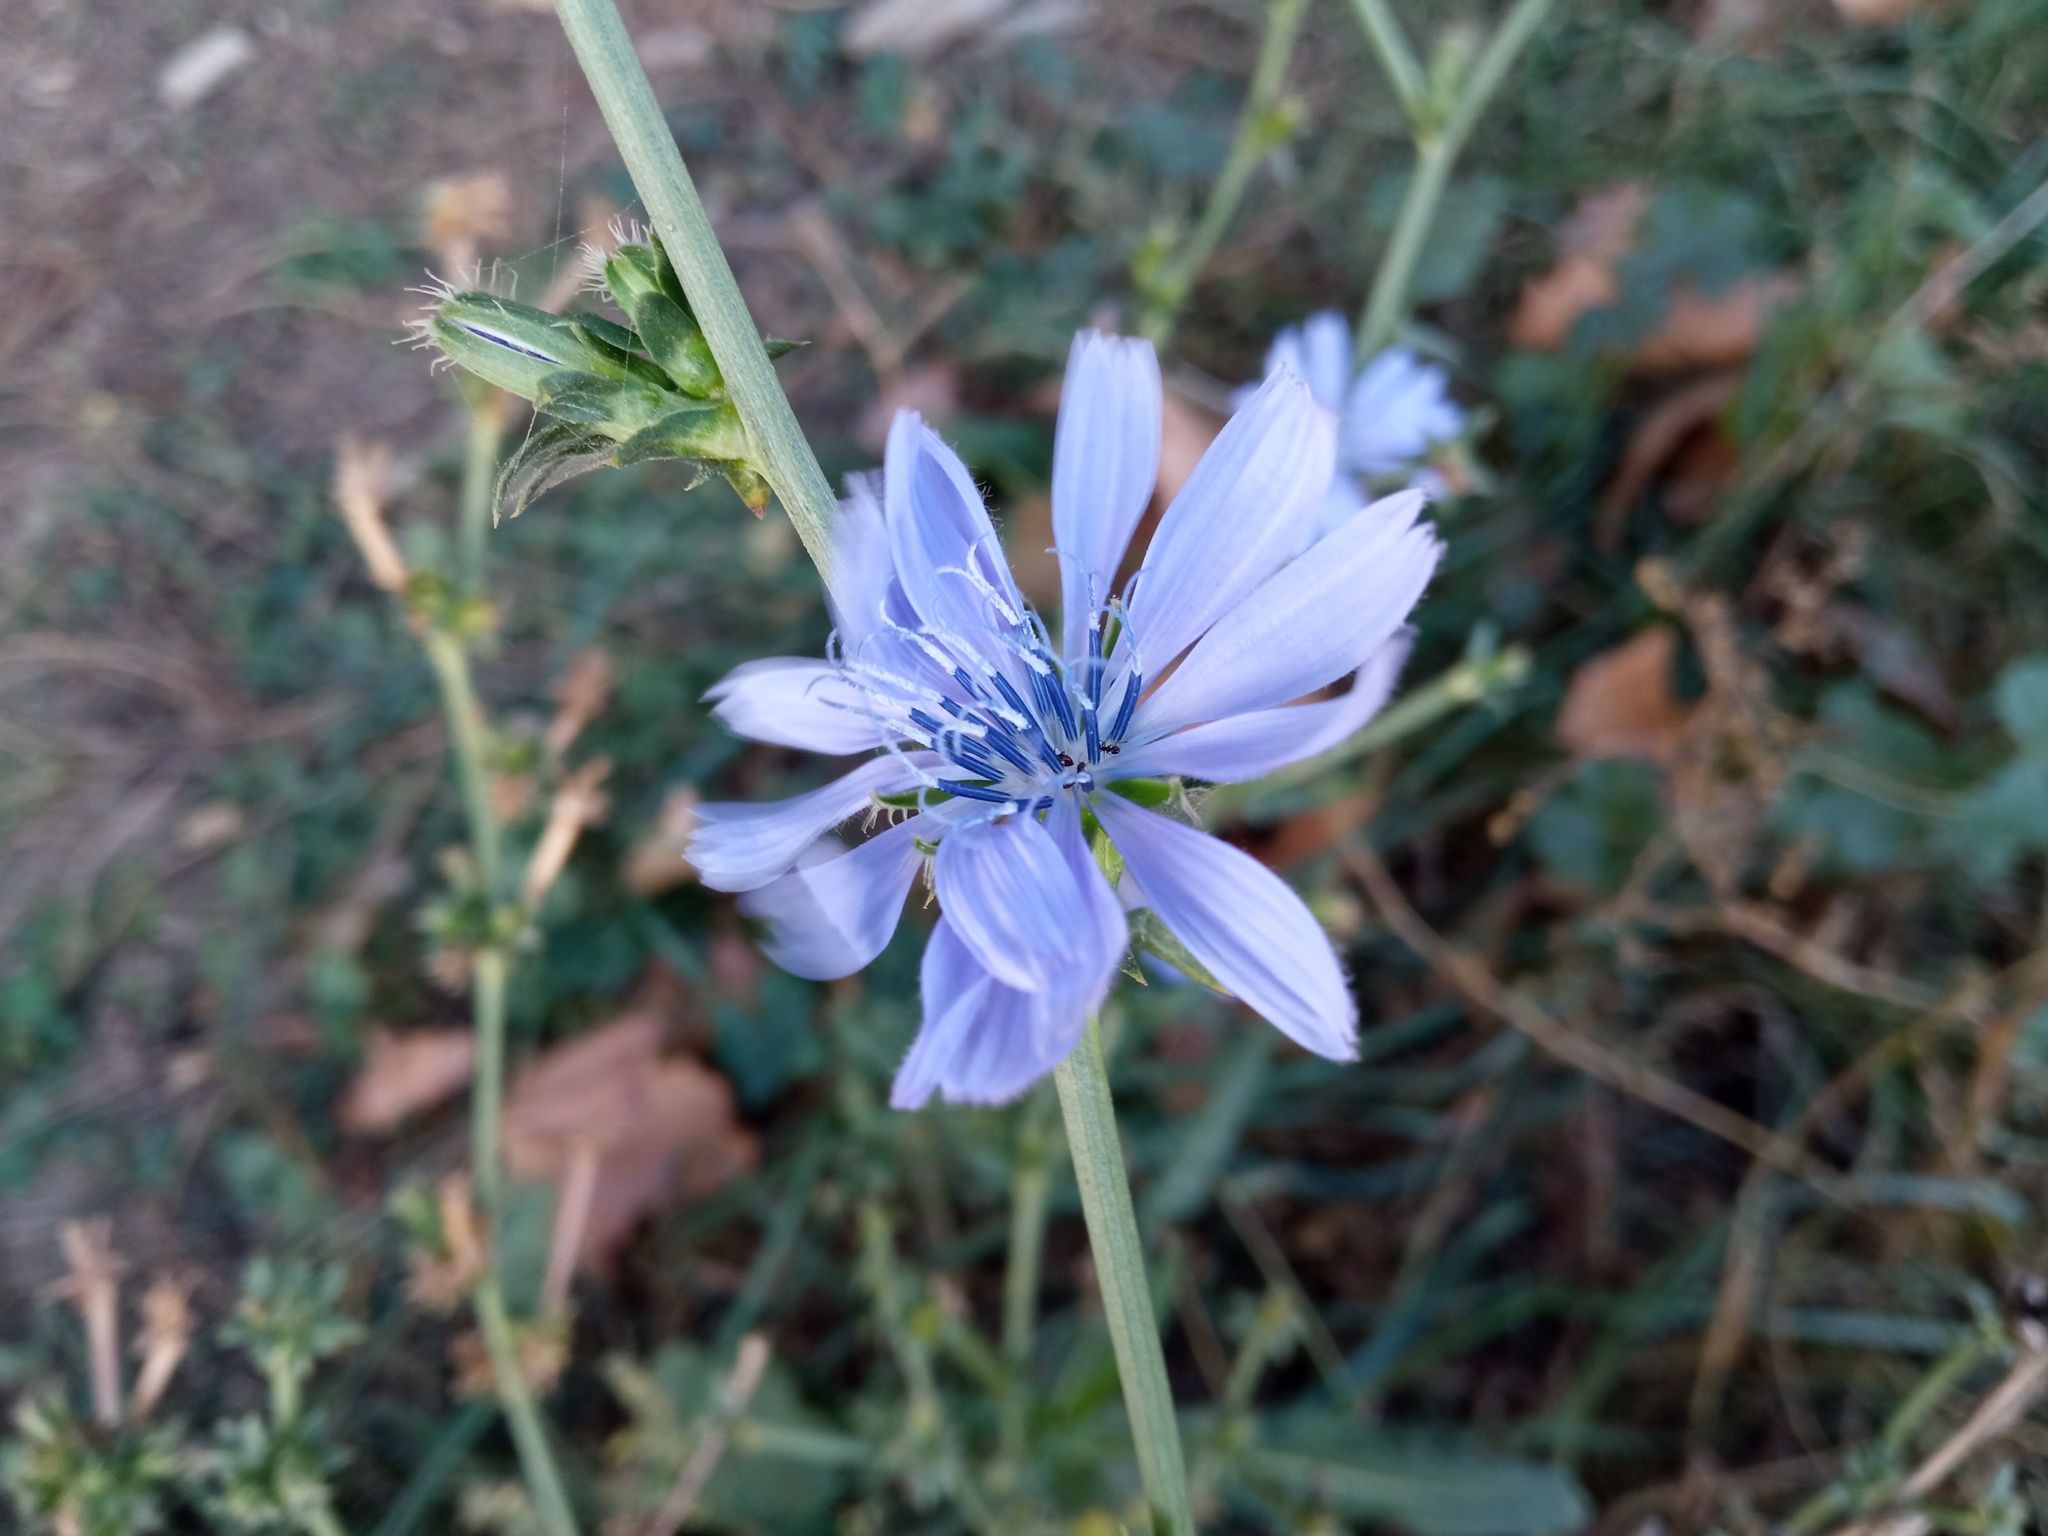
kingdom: Plantae
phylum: Tracheophyta
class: Magnoliopsida
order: Asterales
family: Asteraceae
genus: Cichorium
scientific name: Cichorium intybus
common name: Chicory
